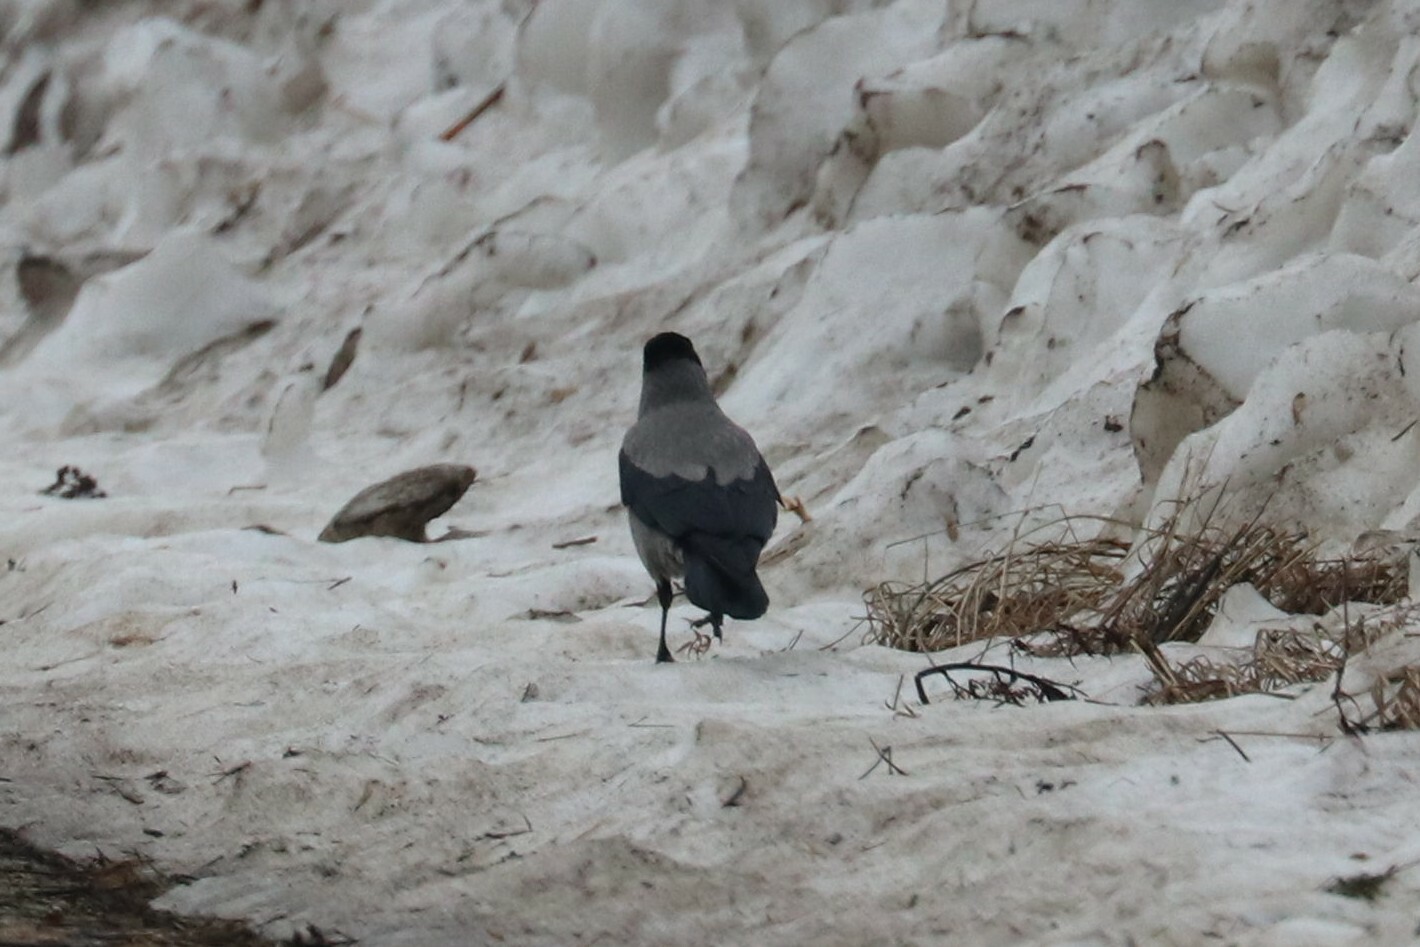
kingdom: Animalia
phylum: Chordata
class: Aves
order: Passeriformes
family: Corvidae
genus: Corvus
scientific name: Corvus cornix
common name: Hooded crow
